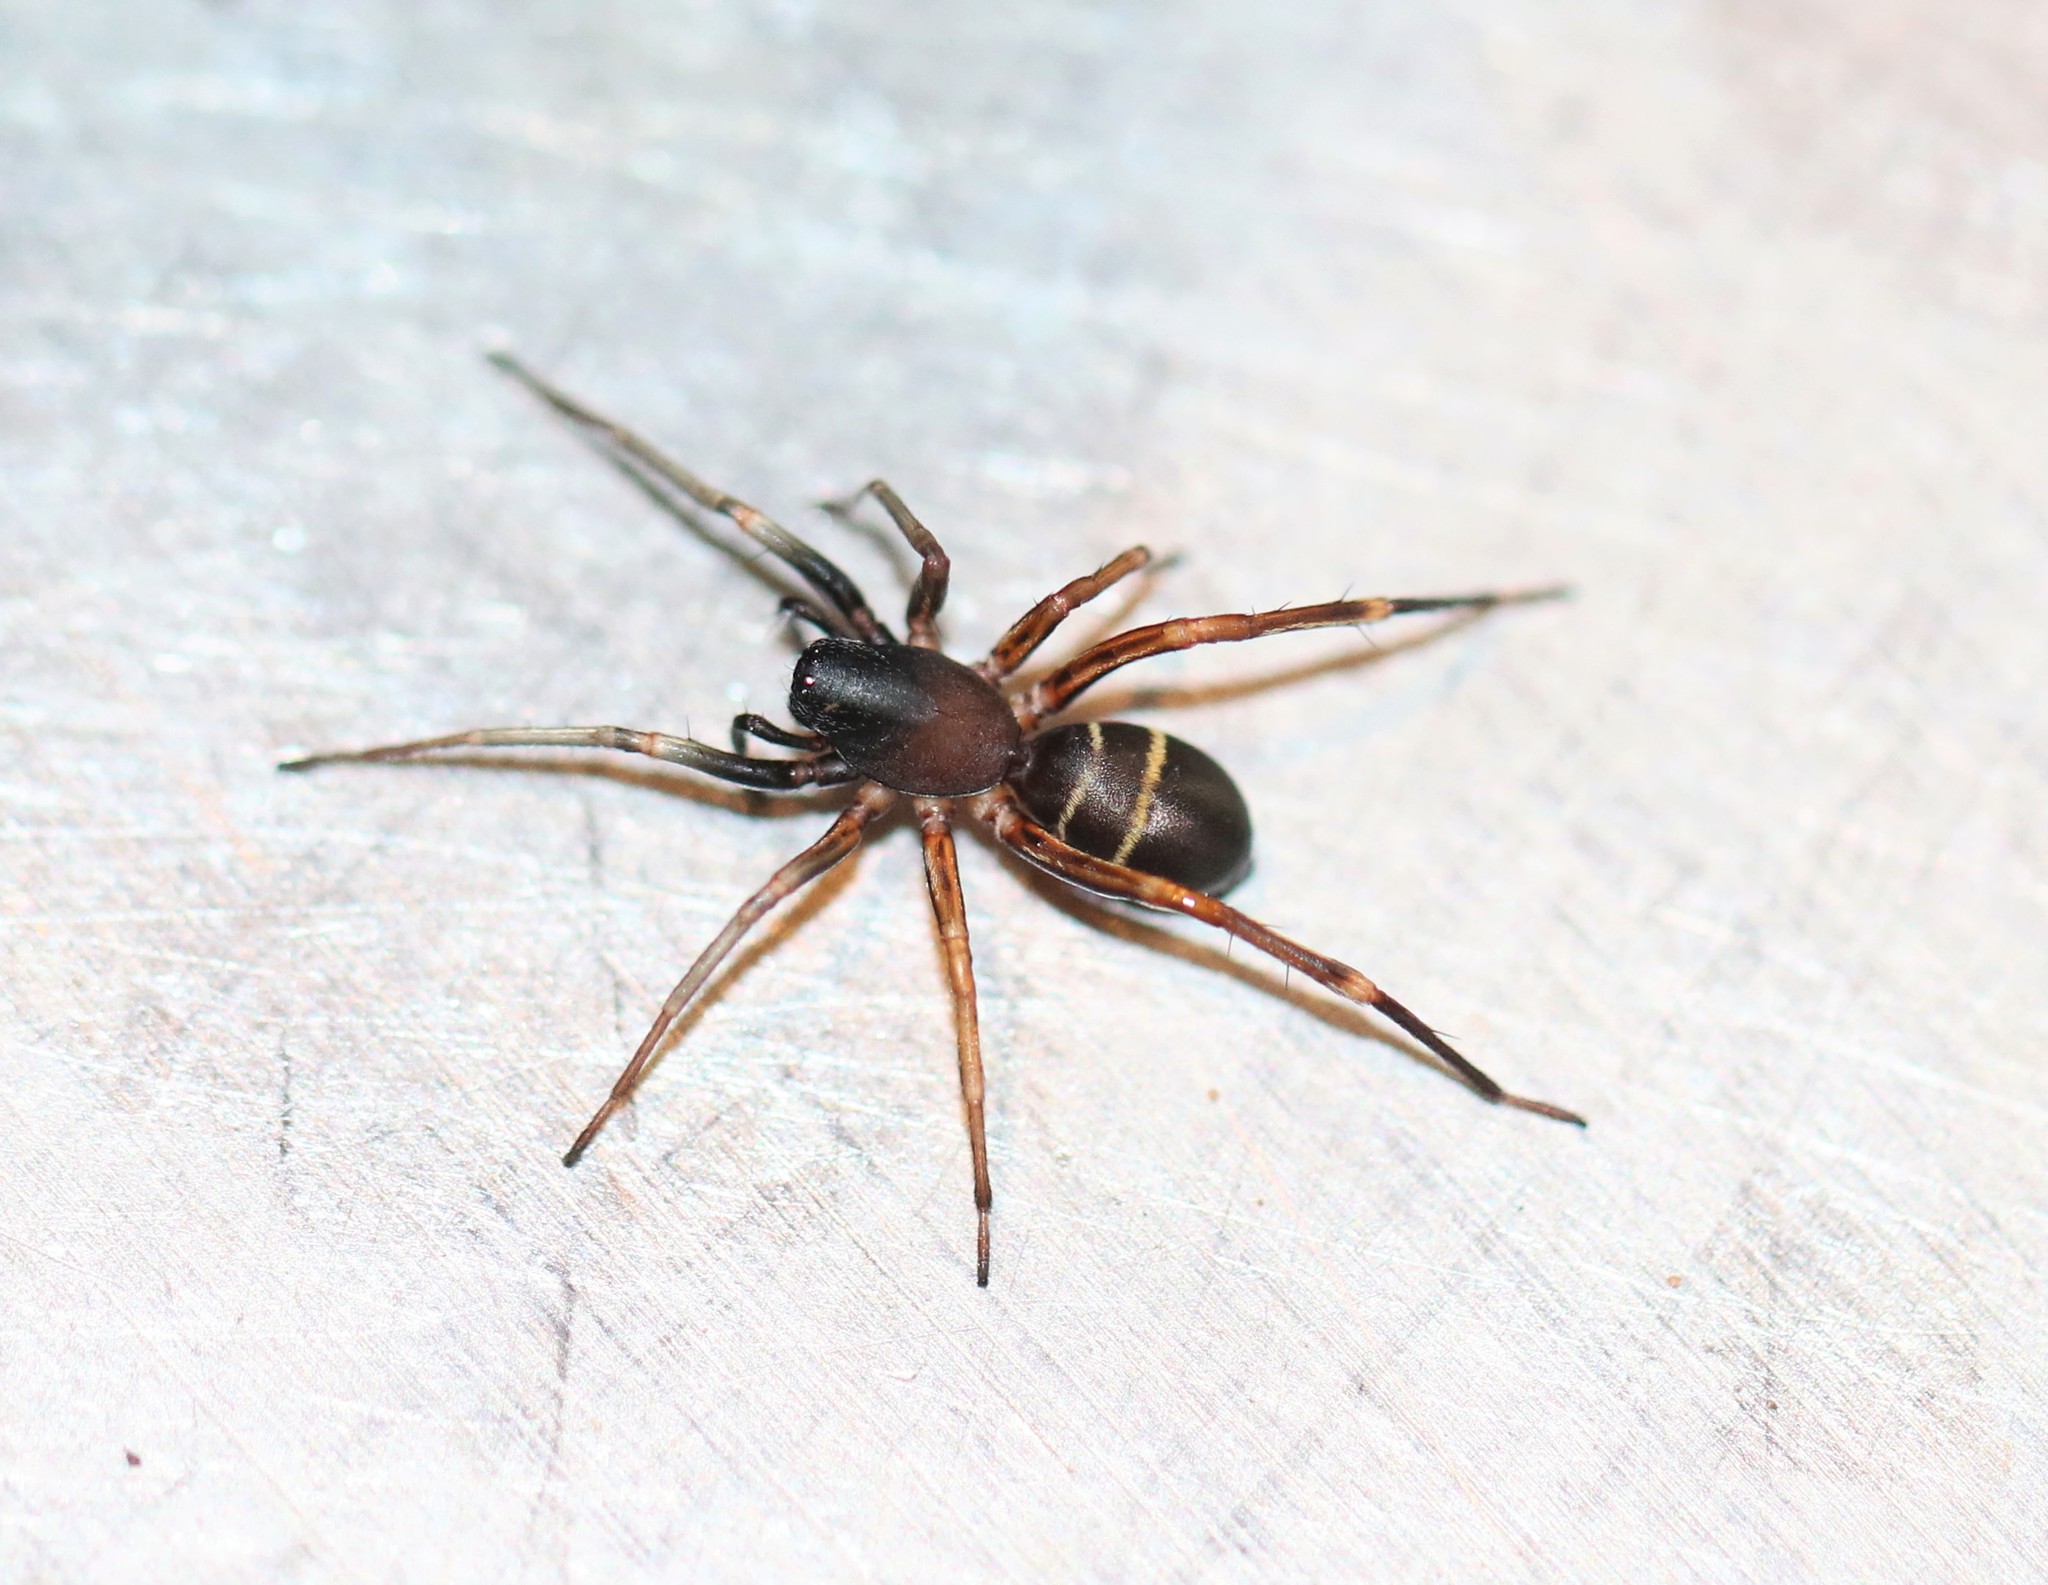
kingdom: Animalia
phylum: Arthropoda
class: Arachnida
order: Araneae
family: Corinnidae
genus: Castianeira
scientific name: Castianeira cingulata
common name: Two-banded ant-mimic sac spider
